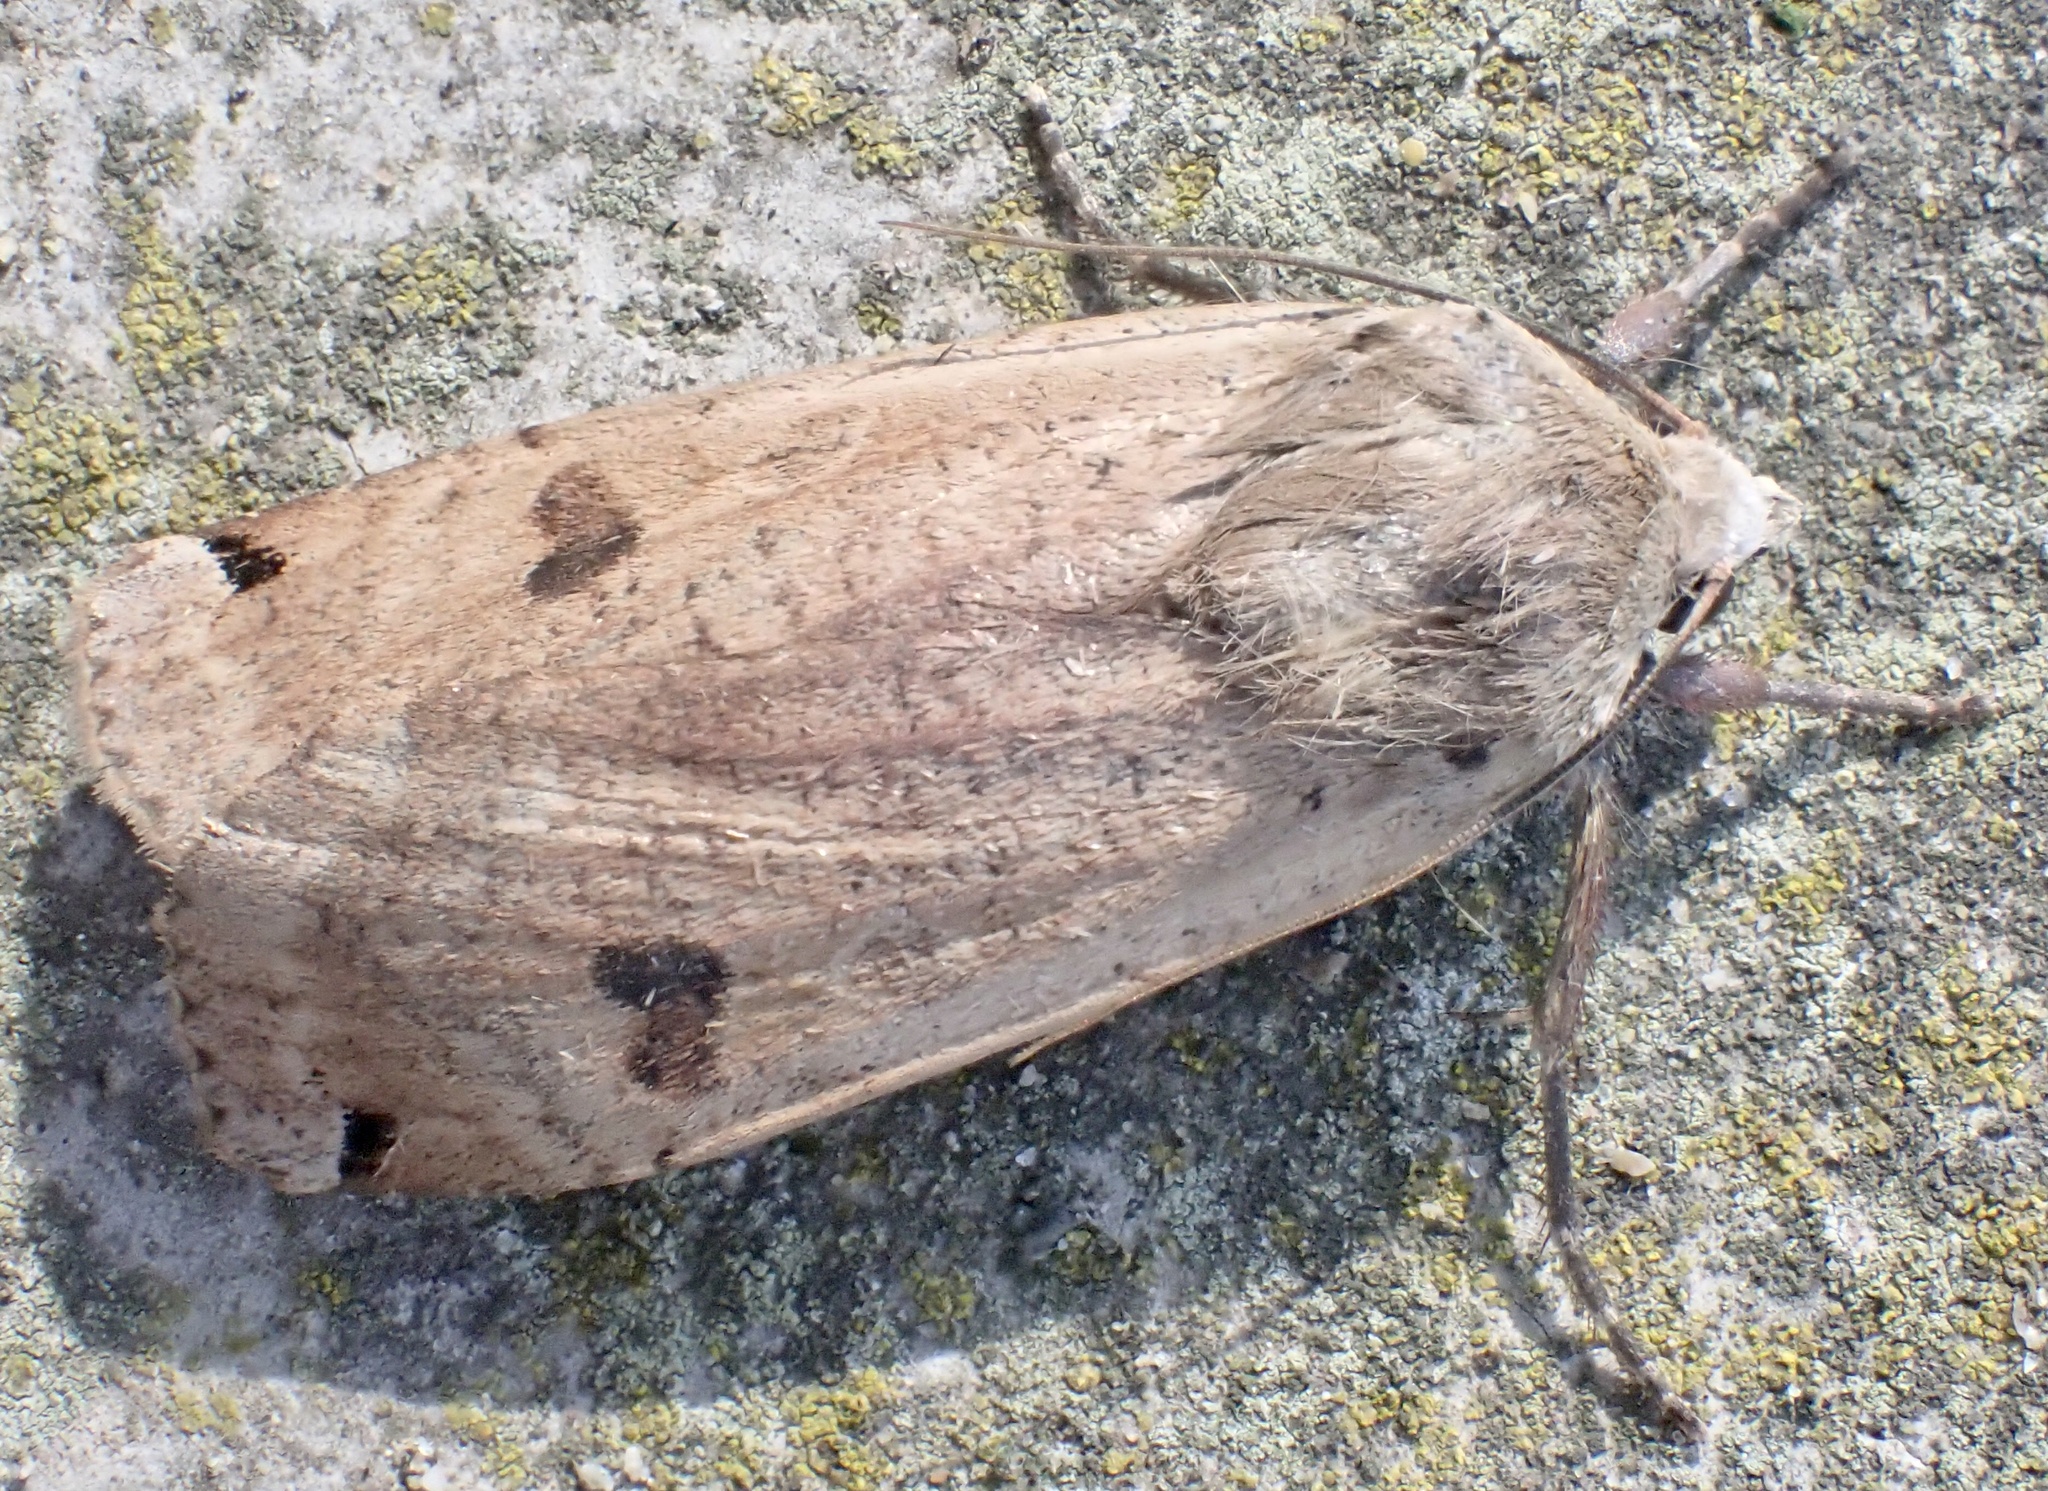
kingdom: Animalia
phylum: Arthropoda
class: Insecta
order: Lepidoptera
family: Noctuidae
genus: Noctua
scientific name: Noctua pronuba
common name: Large yellow underwing
